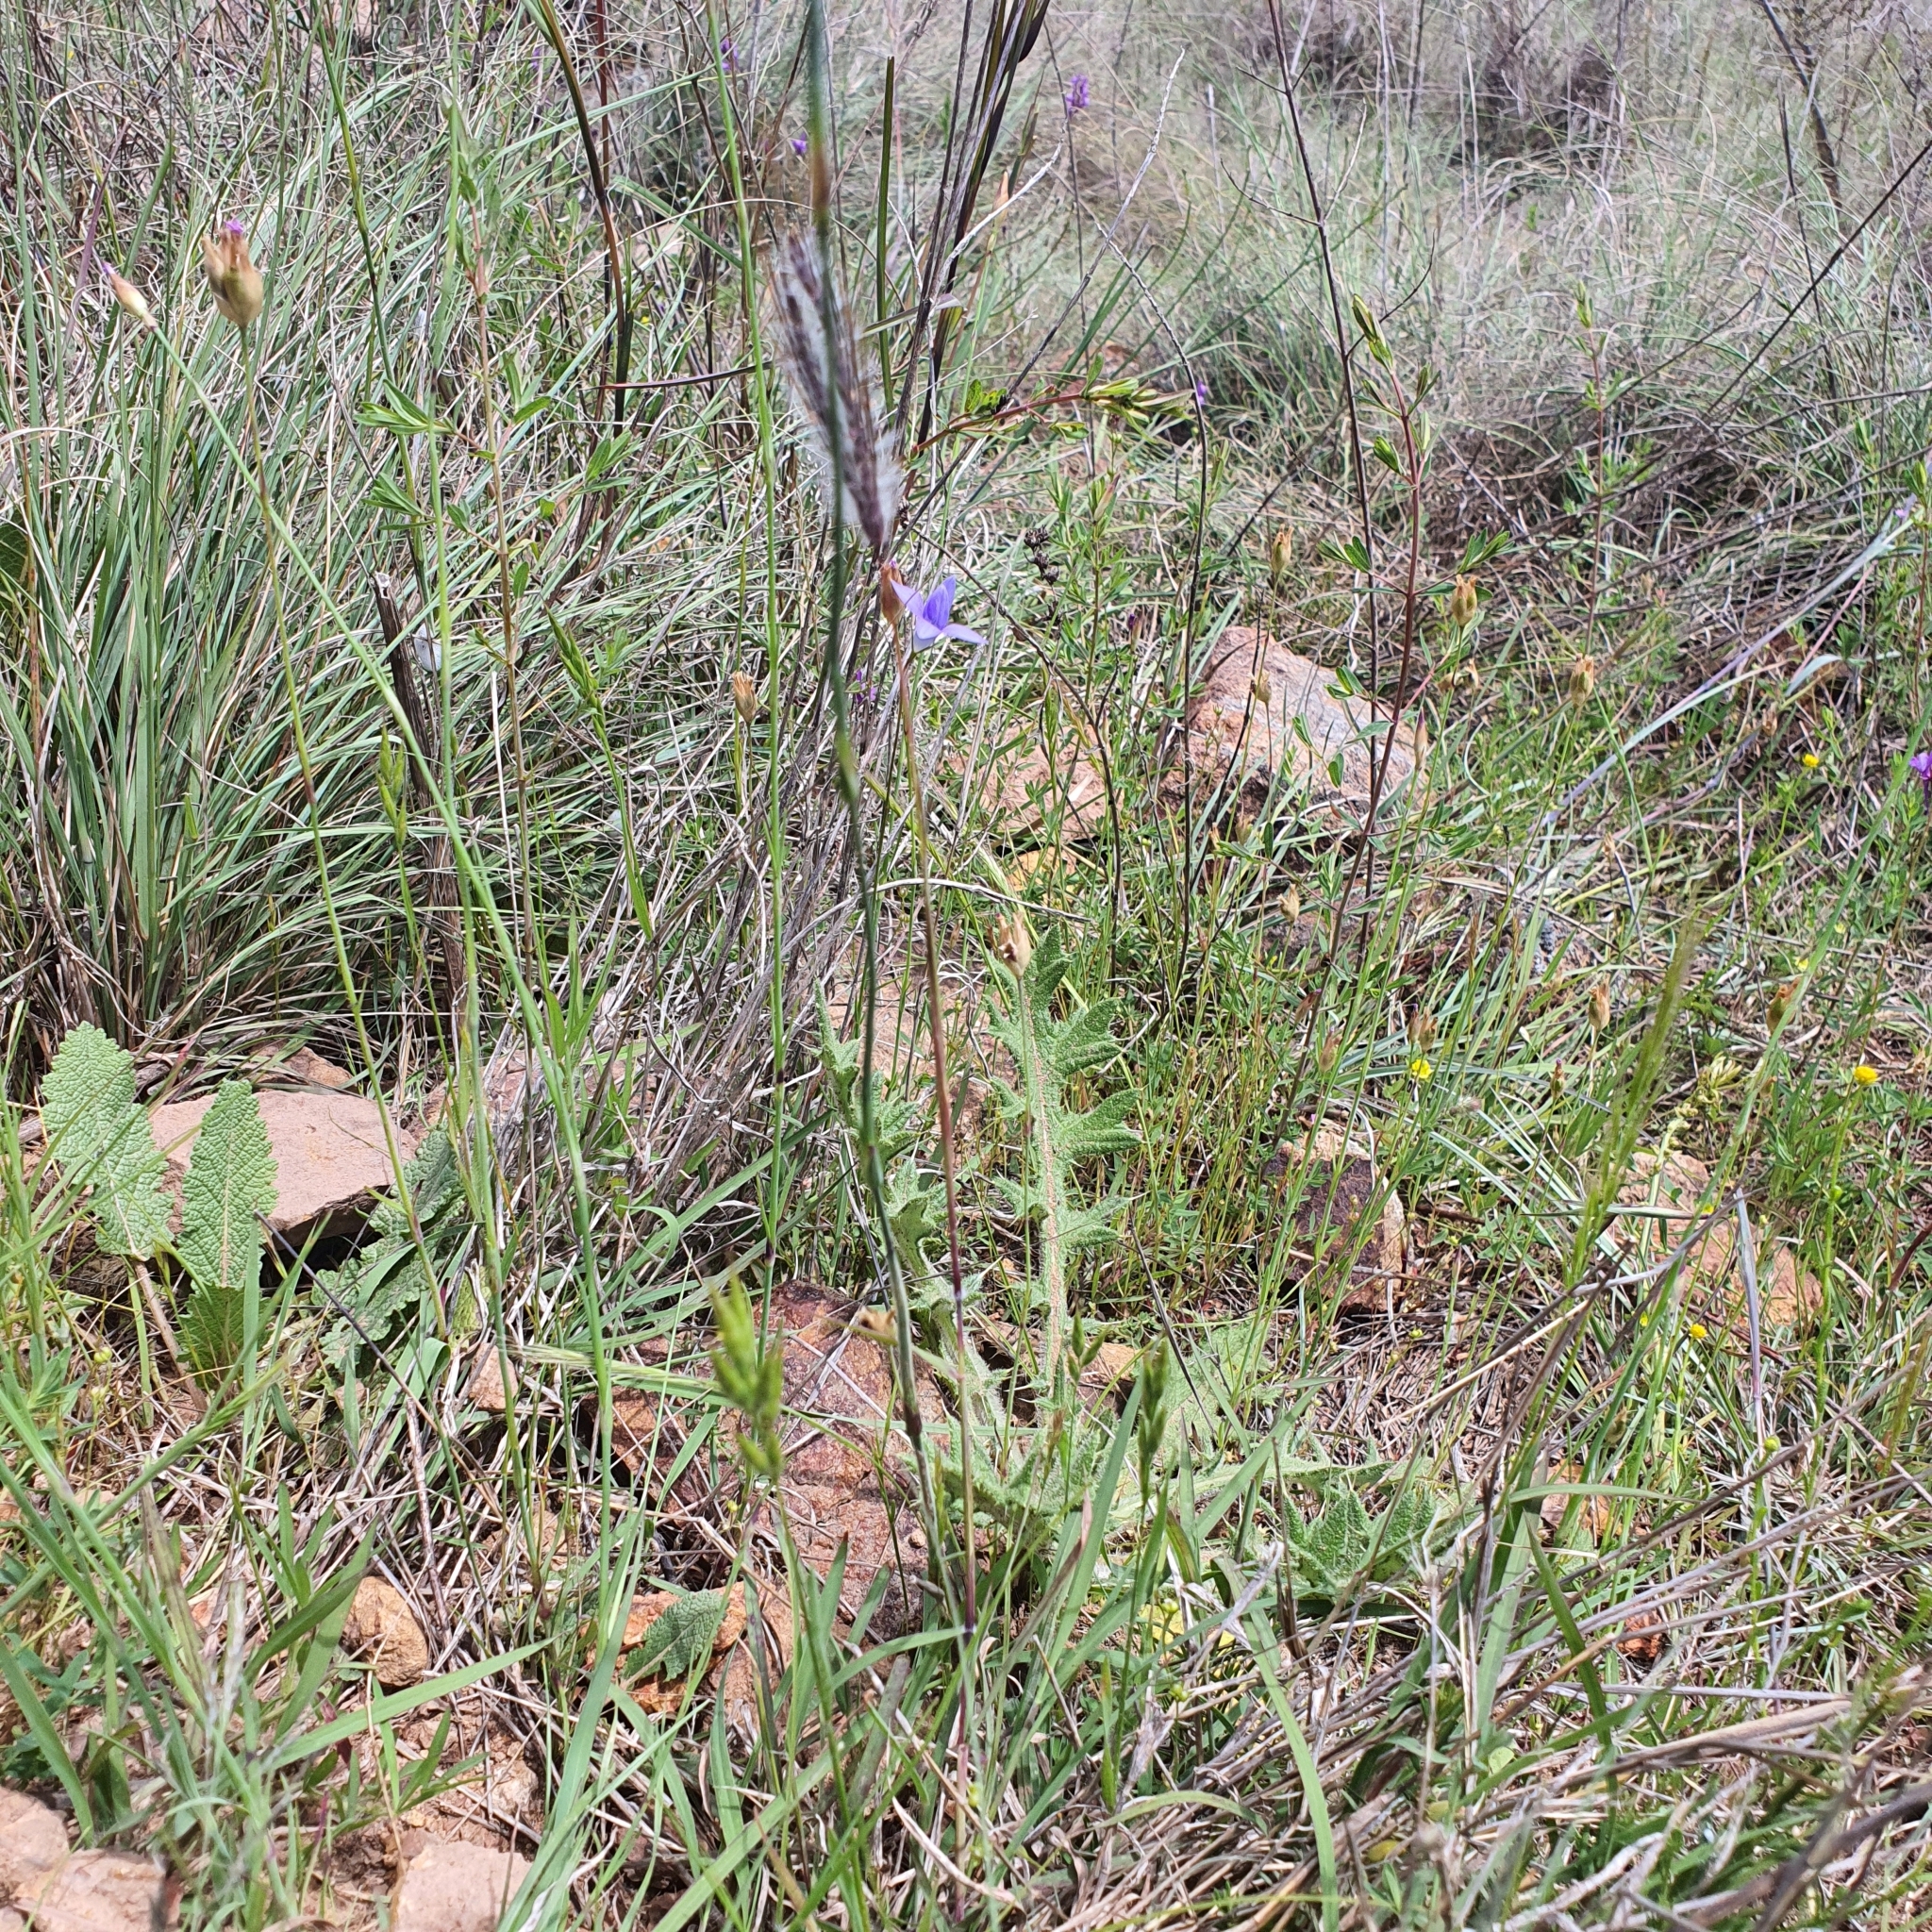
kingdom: Plantae
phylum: Tracheophyta
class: Liliopsida
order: Poales
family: Poaceae
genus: Dichanthium
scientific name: Dichanthium sericeum
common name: Silky bluestem
